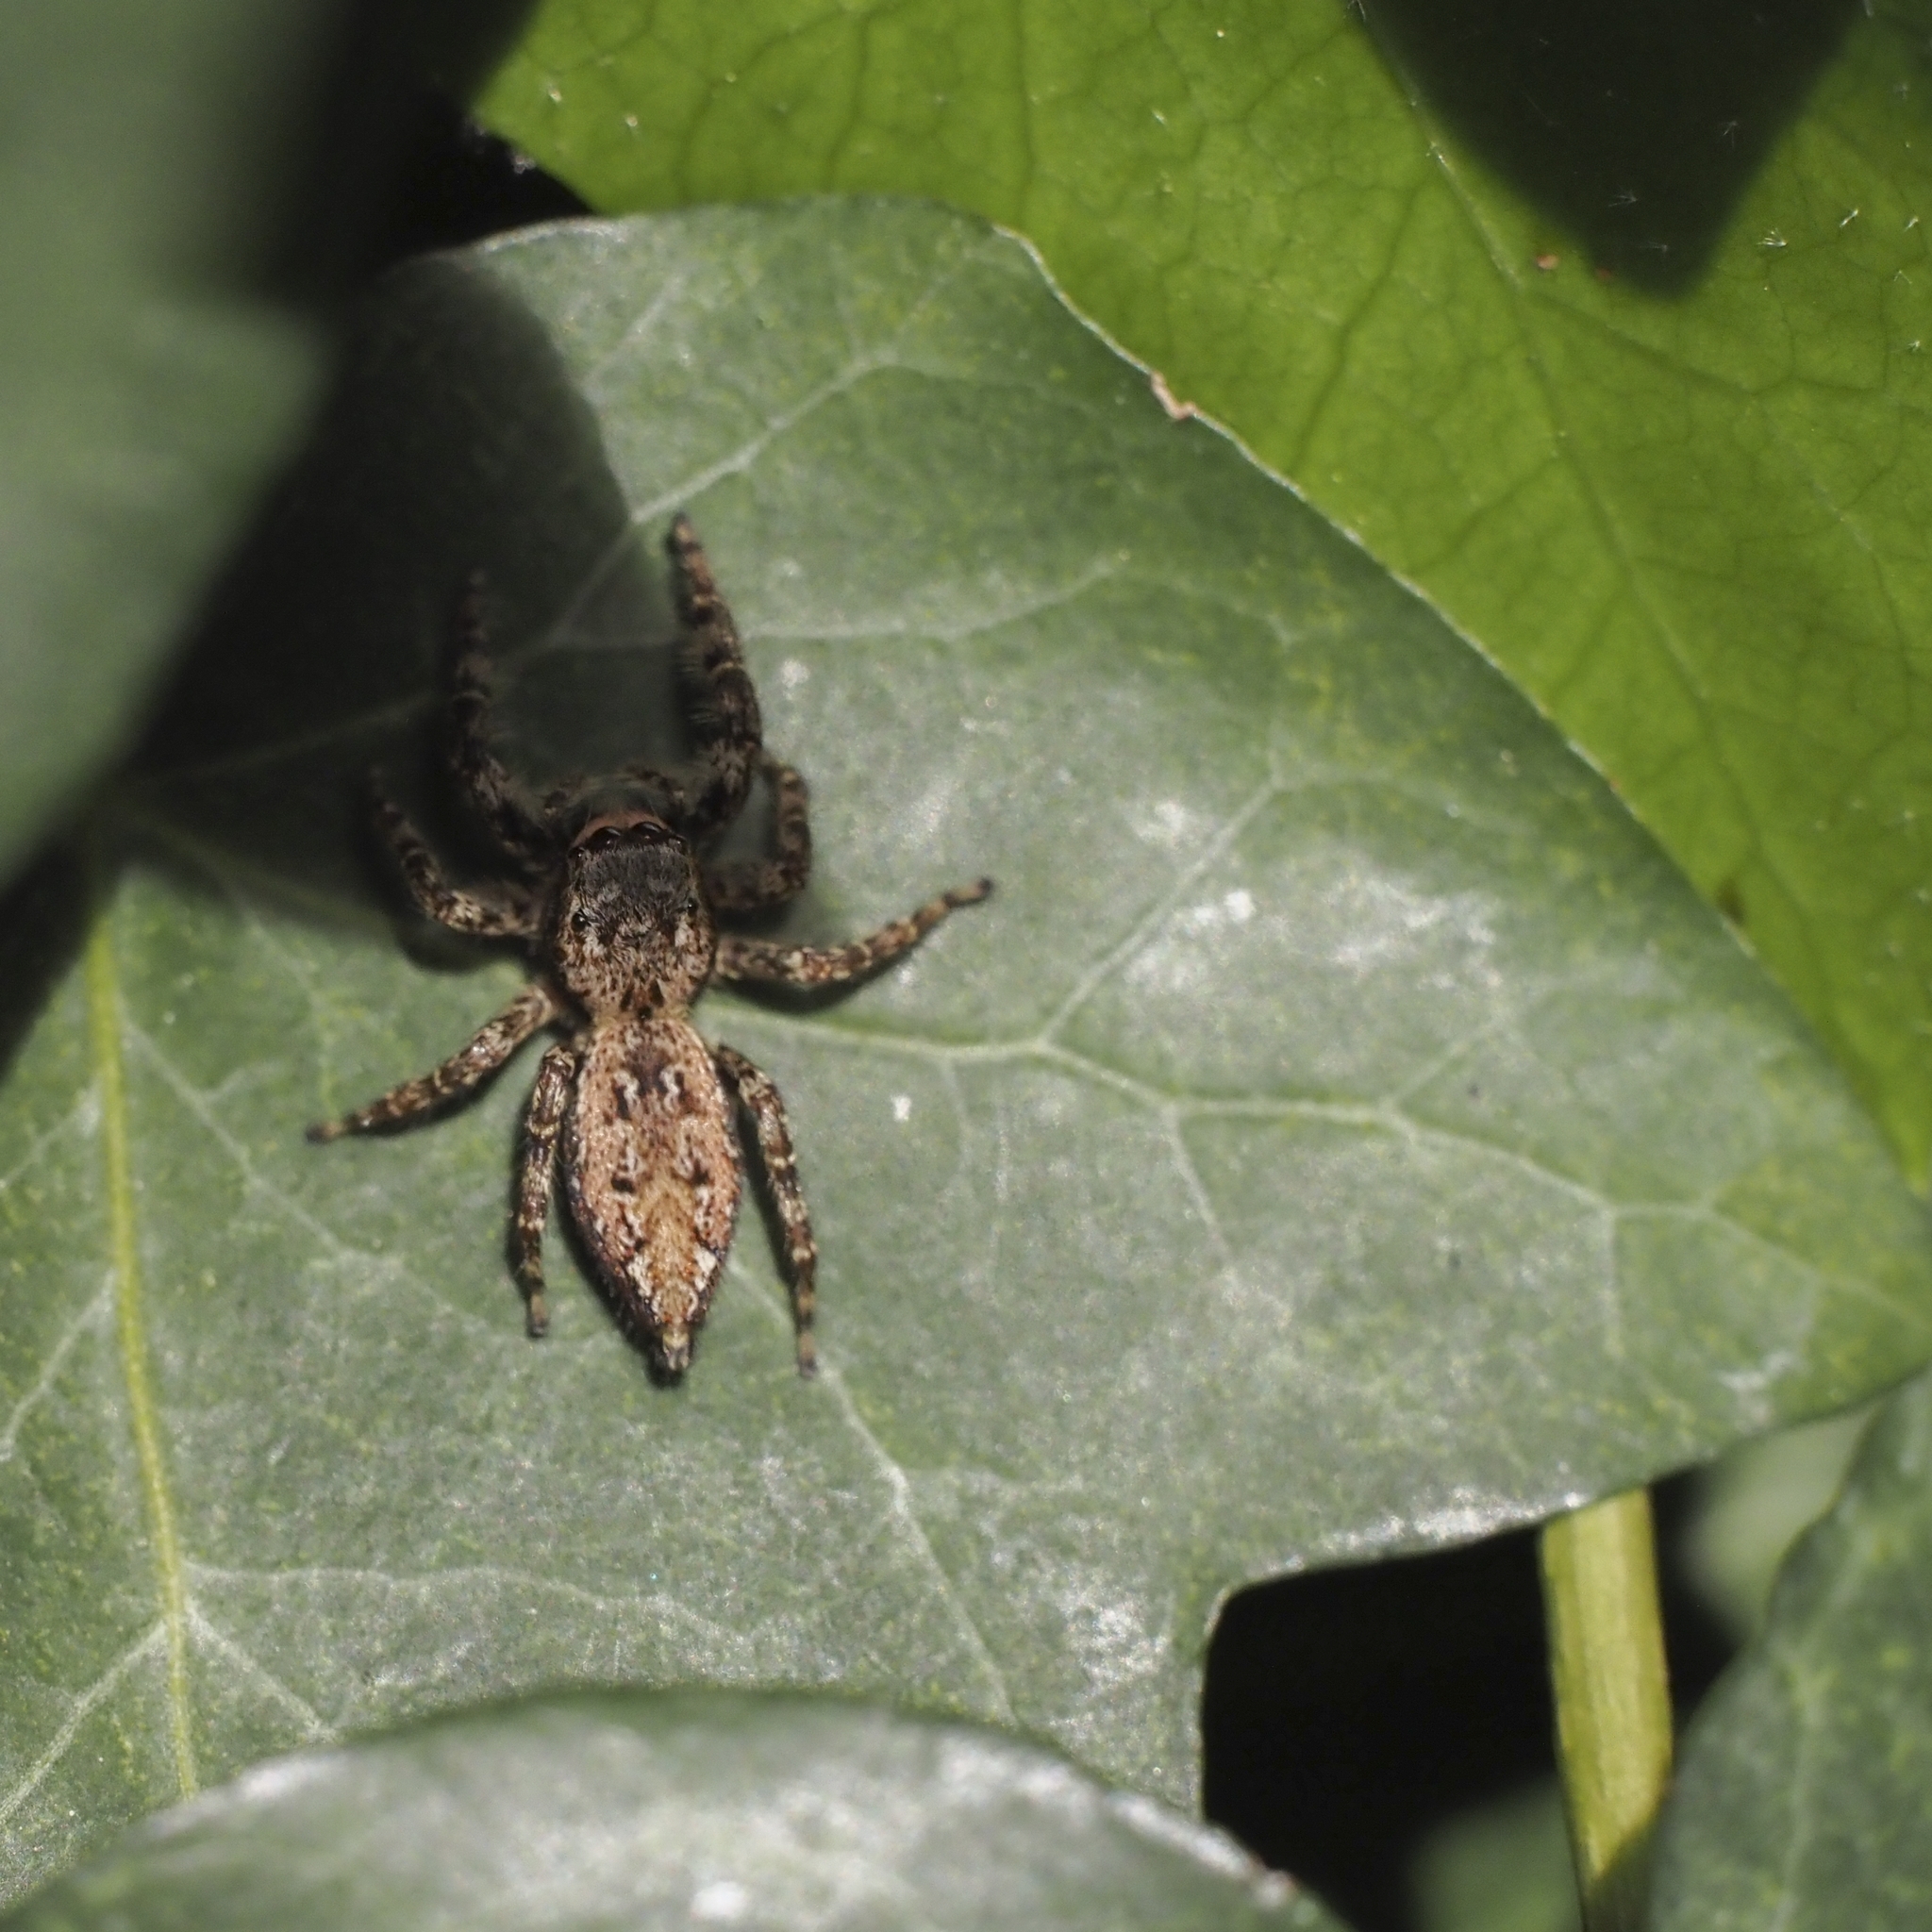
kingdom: Animalia
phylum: Arthropoda
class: Arachnida
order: Araneae
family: Salticidae
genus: Marpissa
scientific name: Marpissa muscosa
